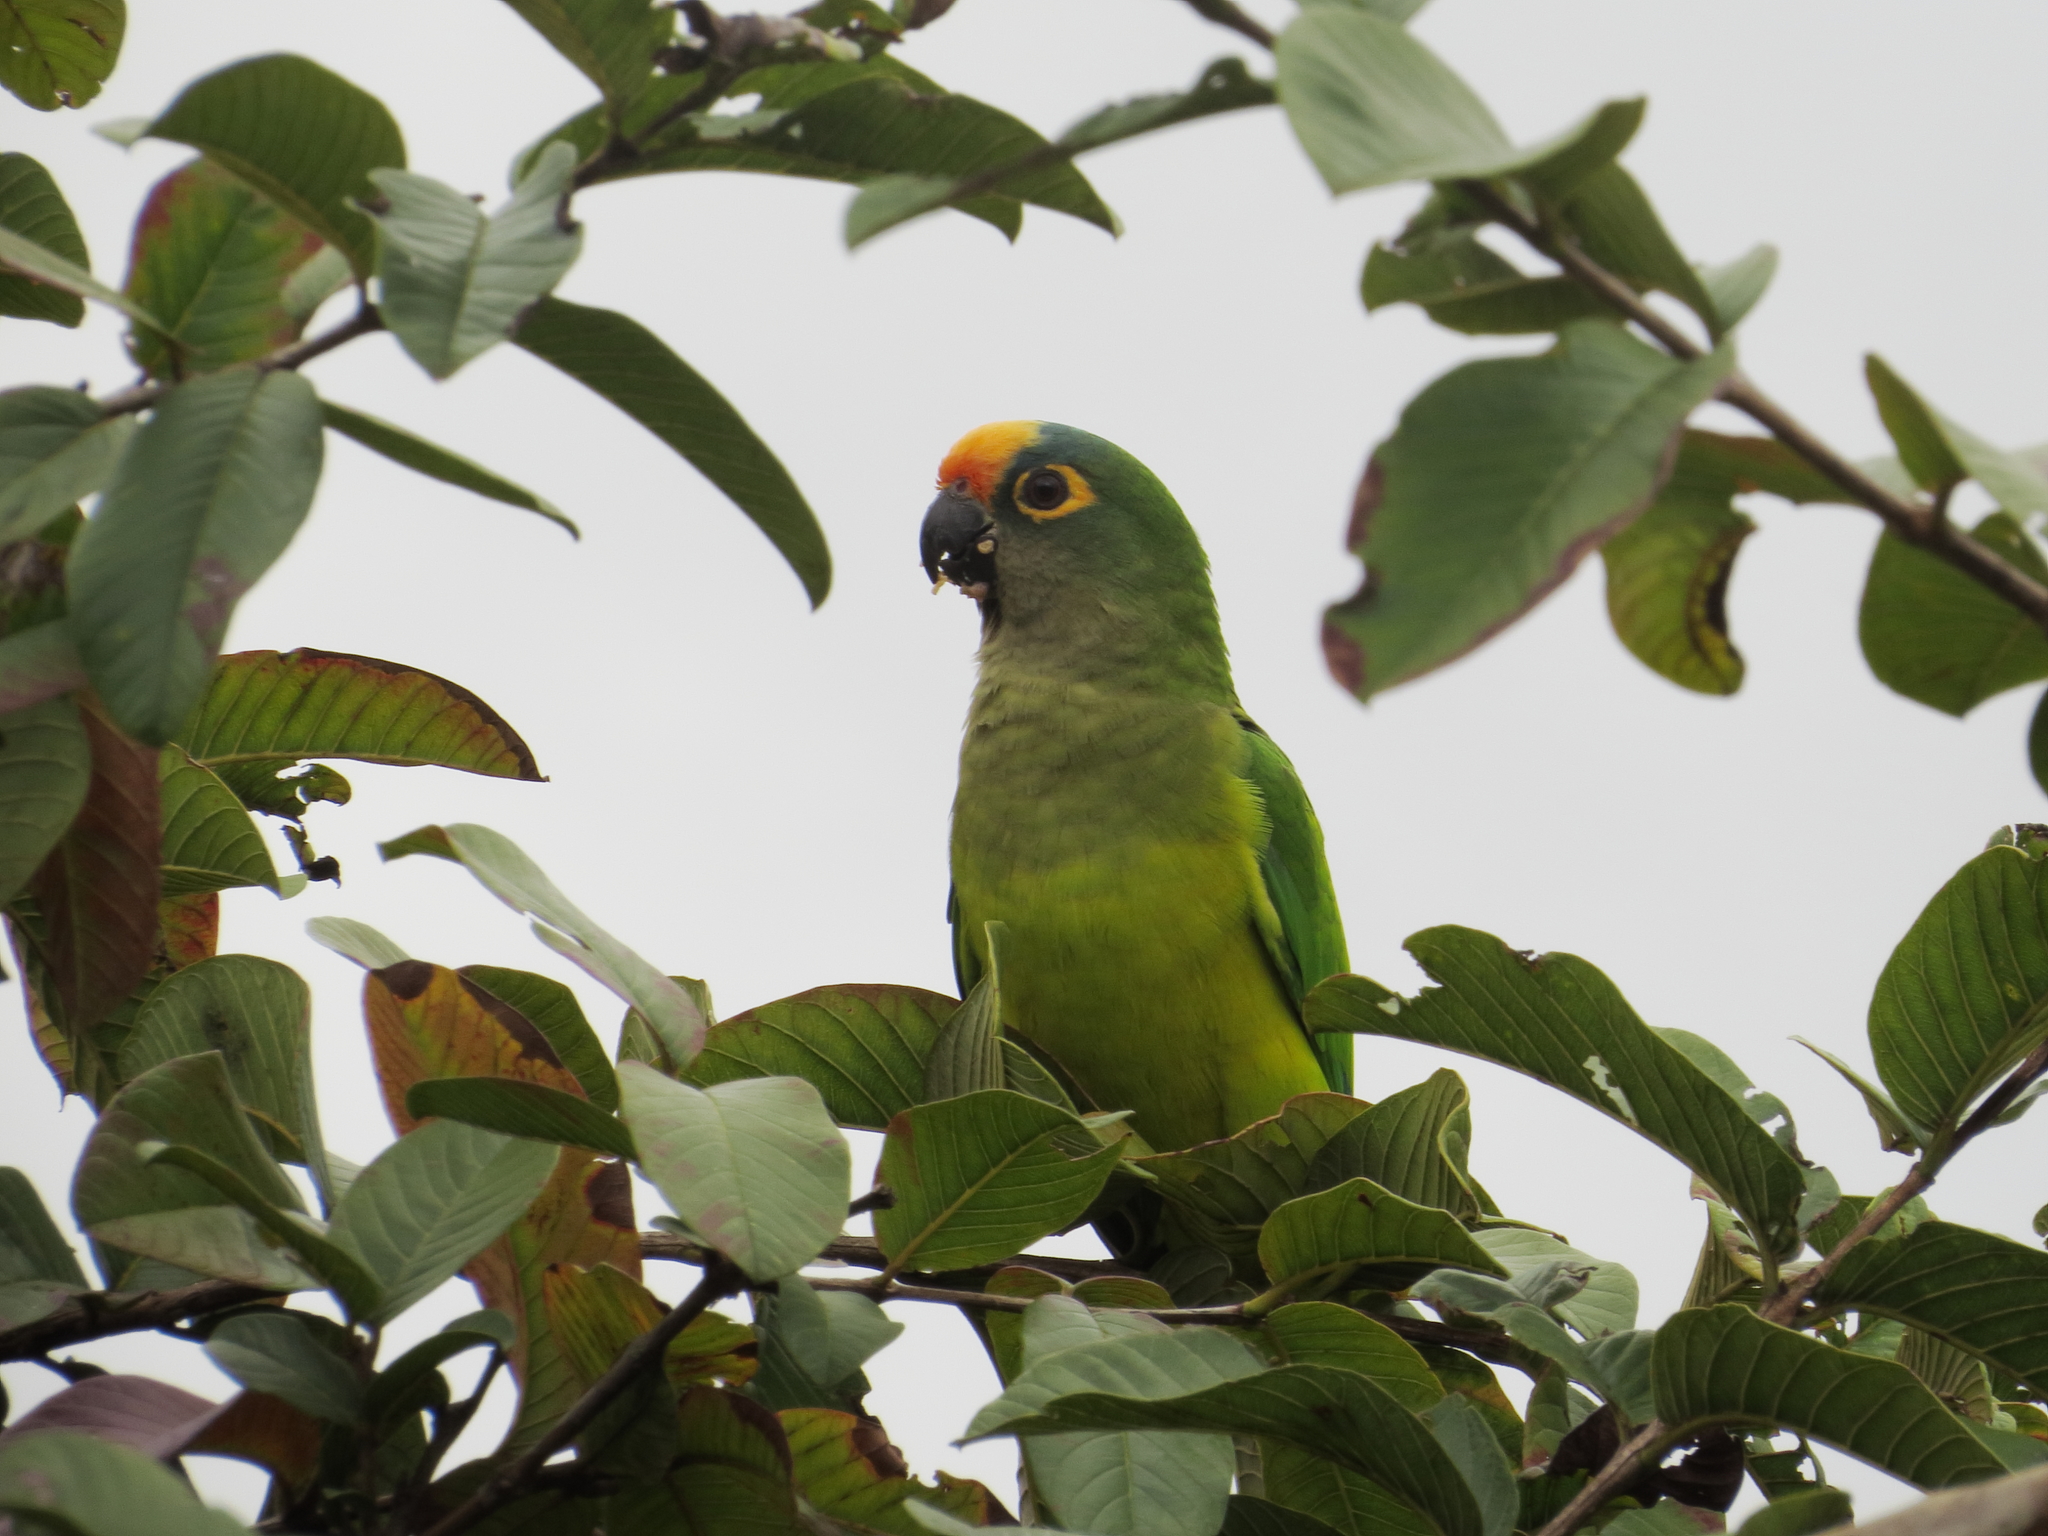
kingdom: Animalia
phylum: Chordata
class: Aves
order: Psittaciformes
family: Psittacidae
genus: Aratinga
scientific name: Aratinga aurea
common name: Peach-fronted parakeet
